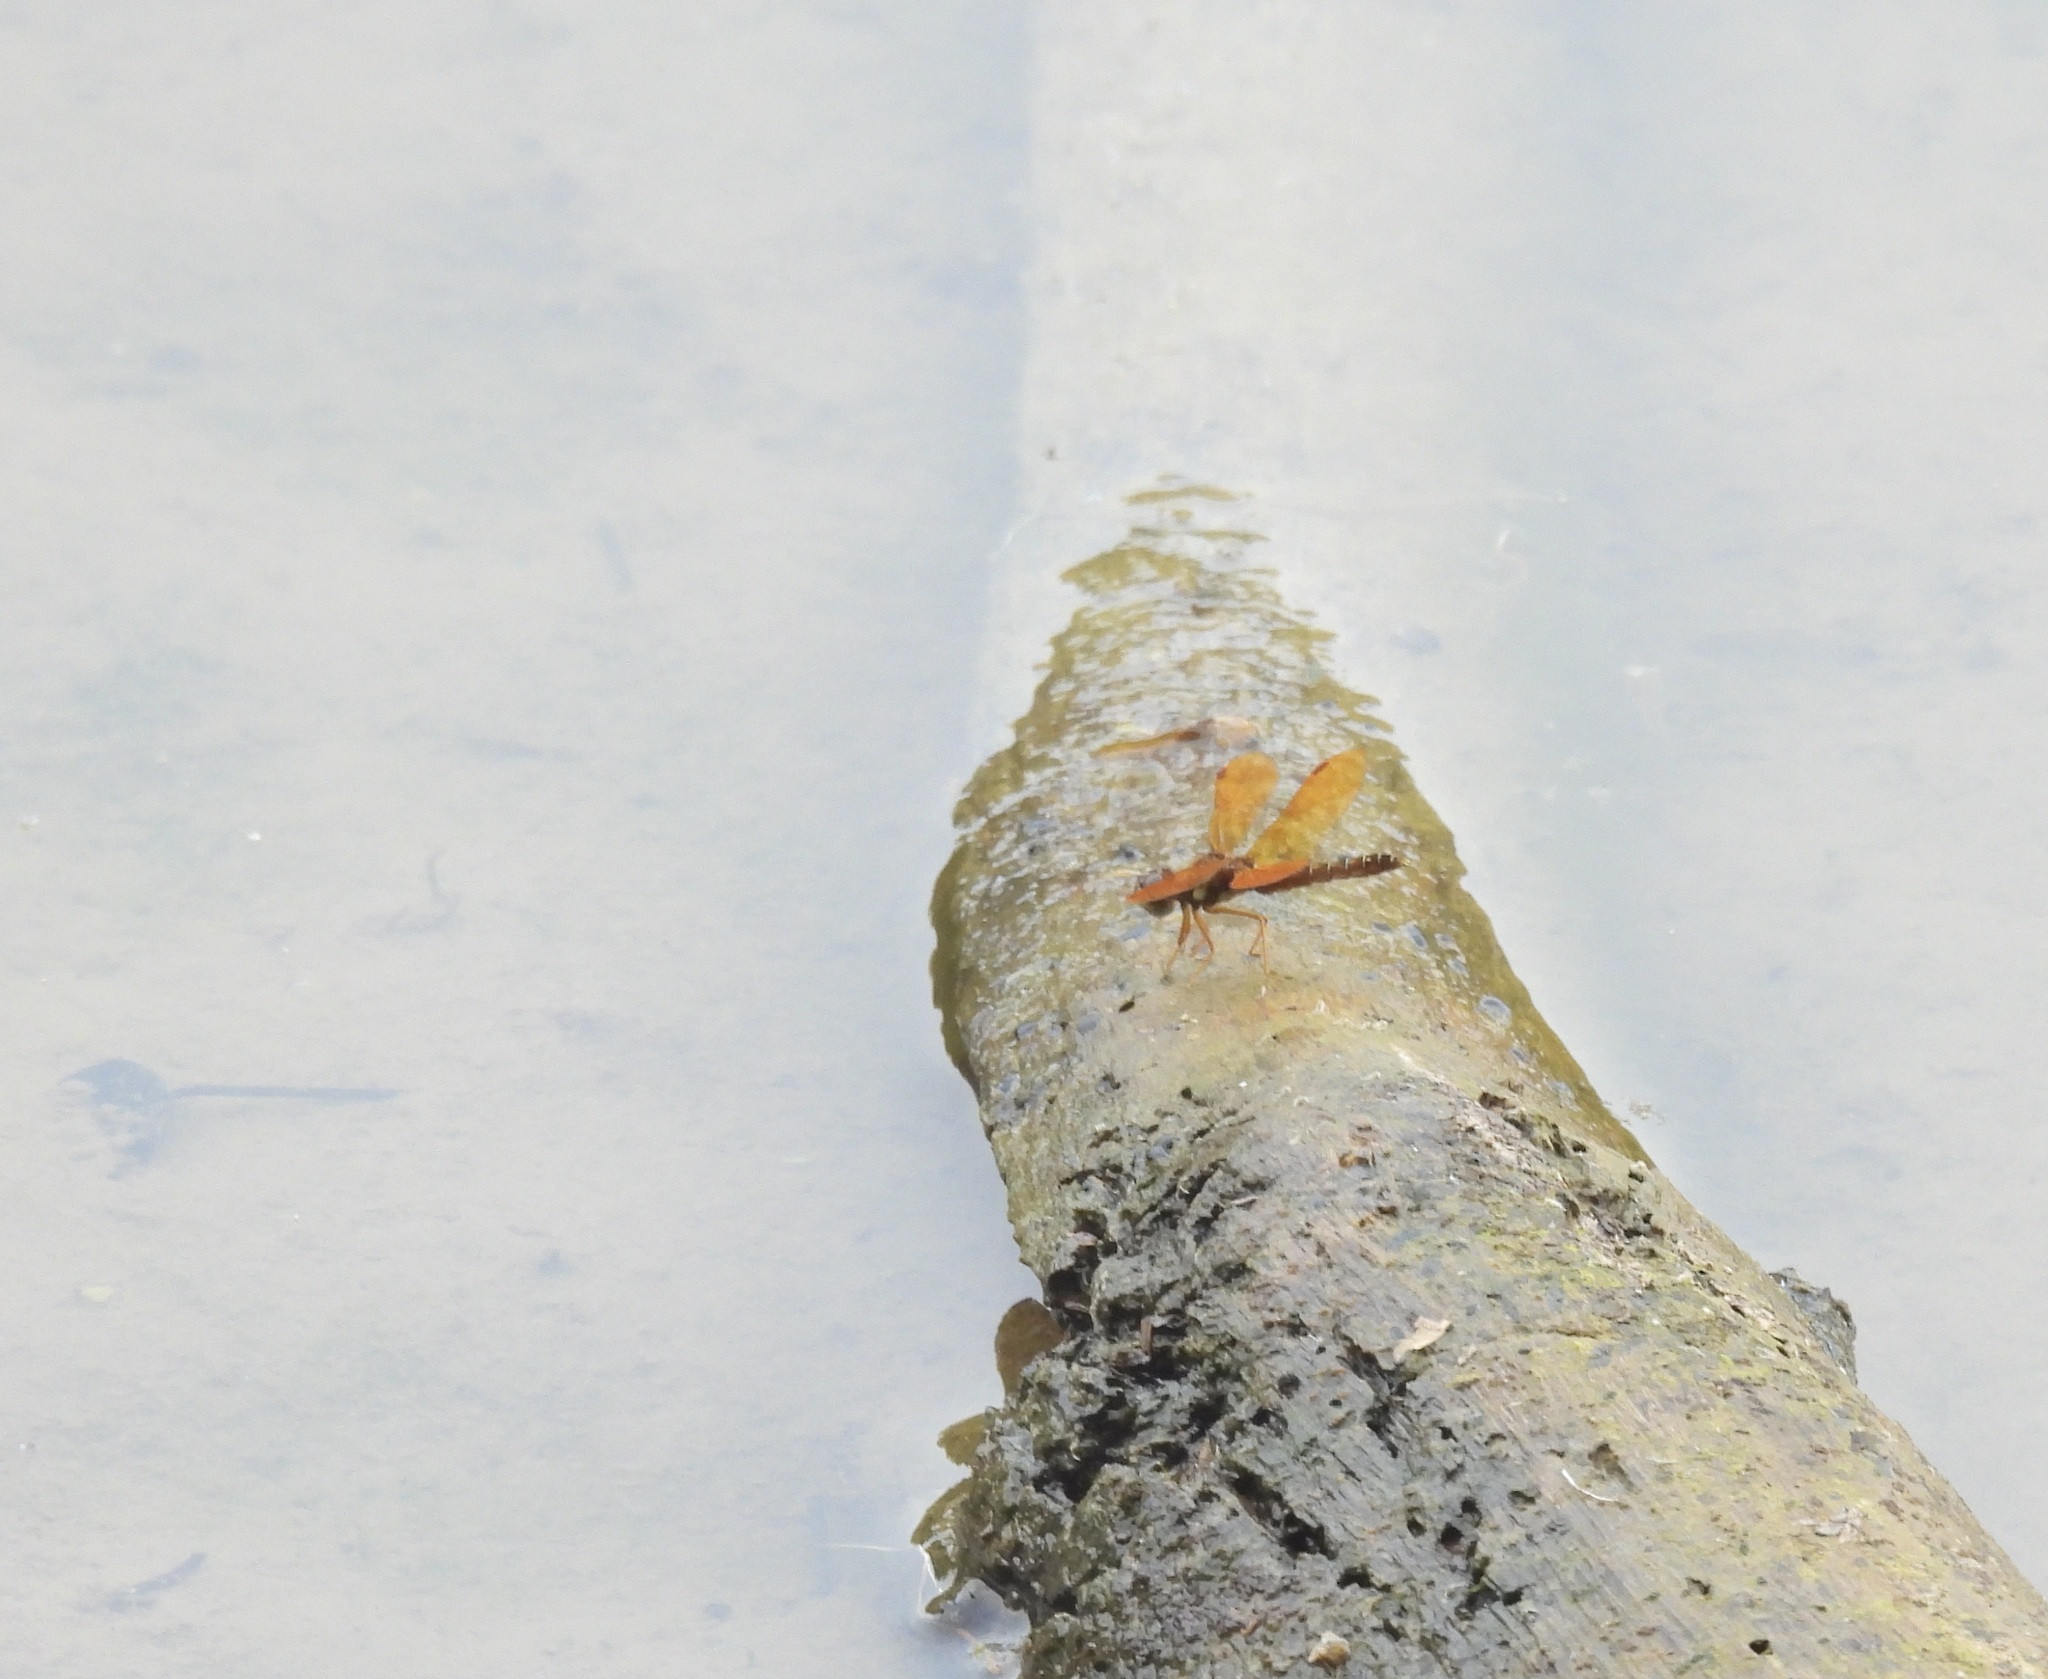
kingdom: Animalia
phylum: Arthropoda
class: Insecta
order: Odonata
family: Libellulidae
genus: Perithemis
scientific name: Perithemis tenera
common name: Eastern amberwing
